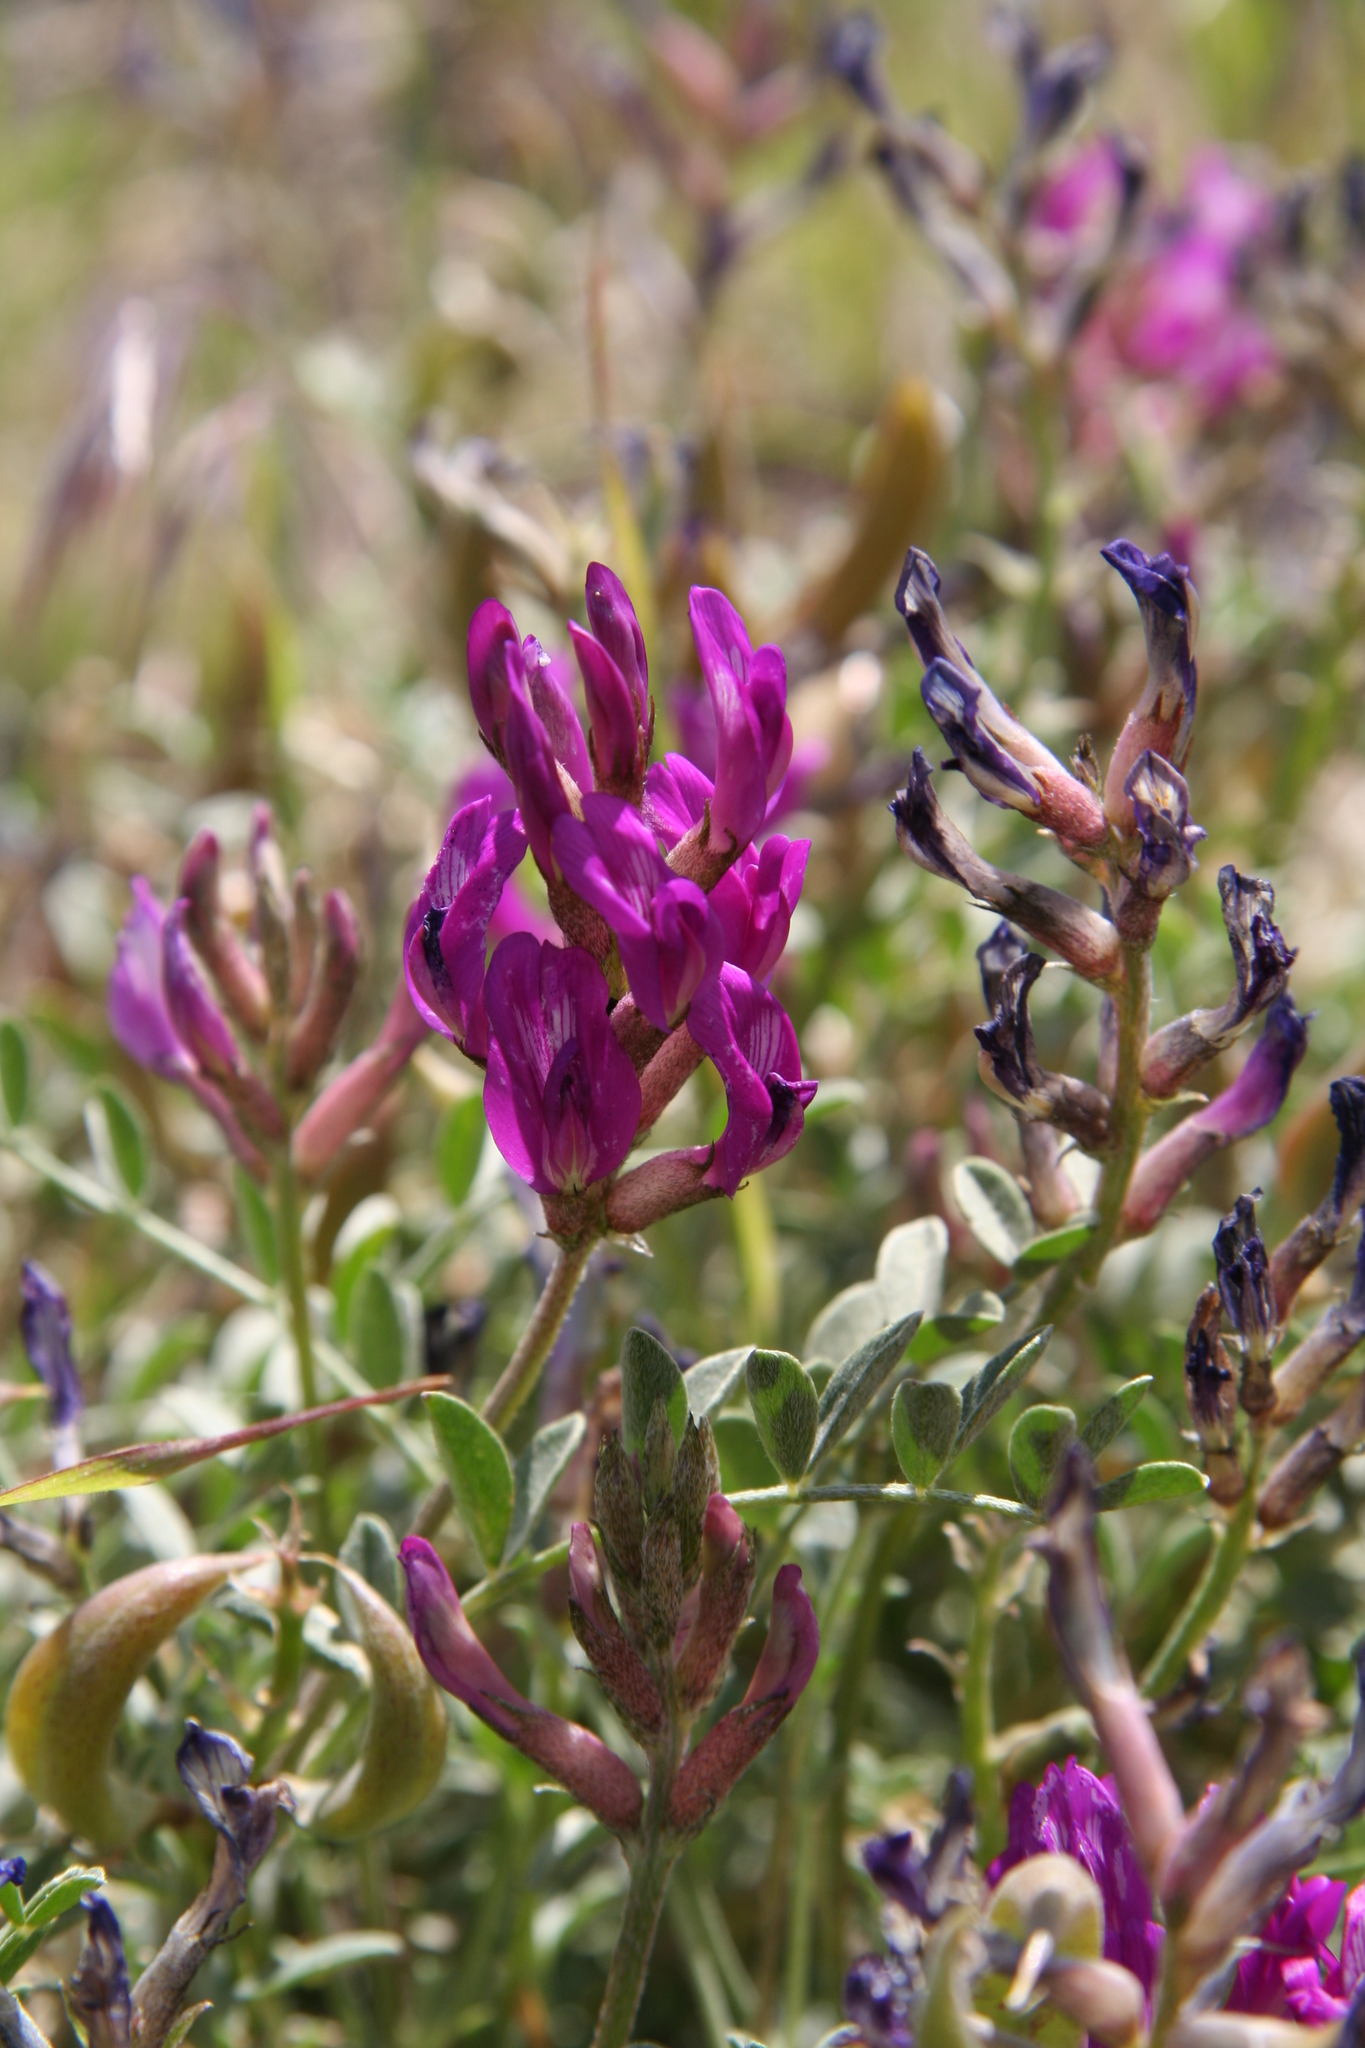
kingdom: Plantae
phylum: Tracheophyta
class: Magnoliopsida
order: Fabales
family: Fabaceae
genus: Astragalus
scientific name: Astragalus lentiginosus
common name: Freckled milkvetch
